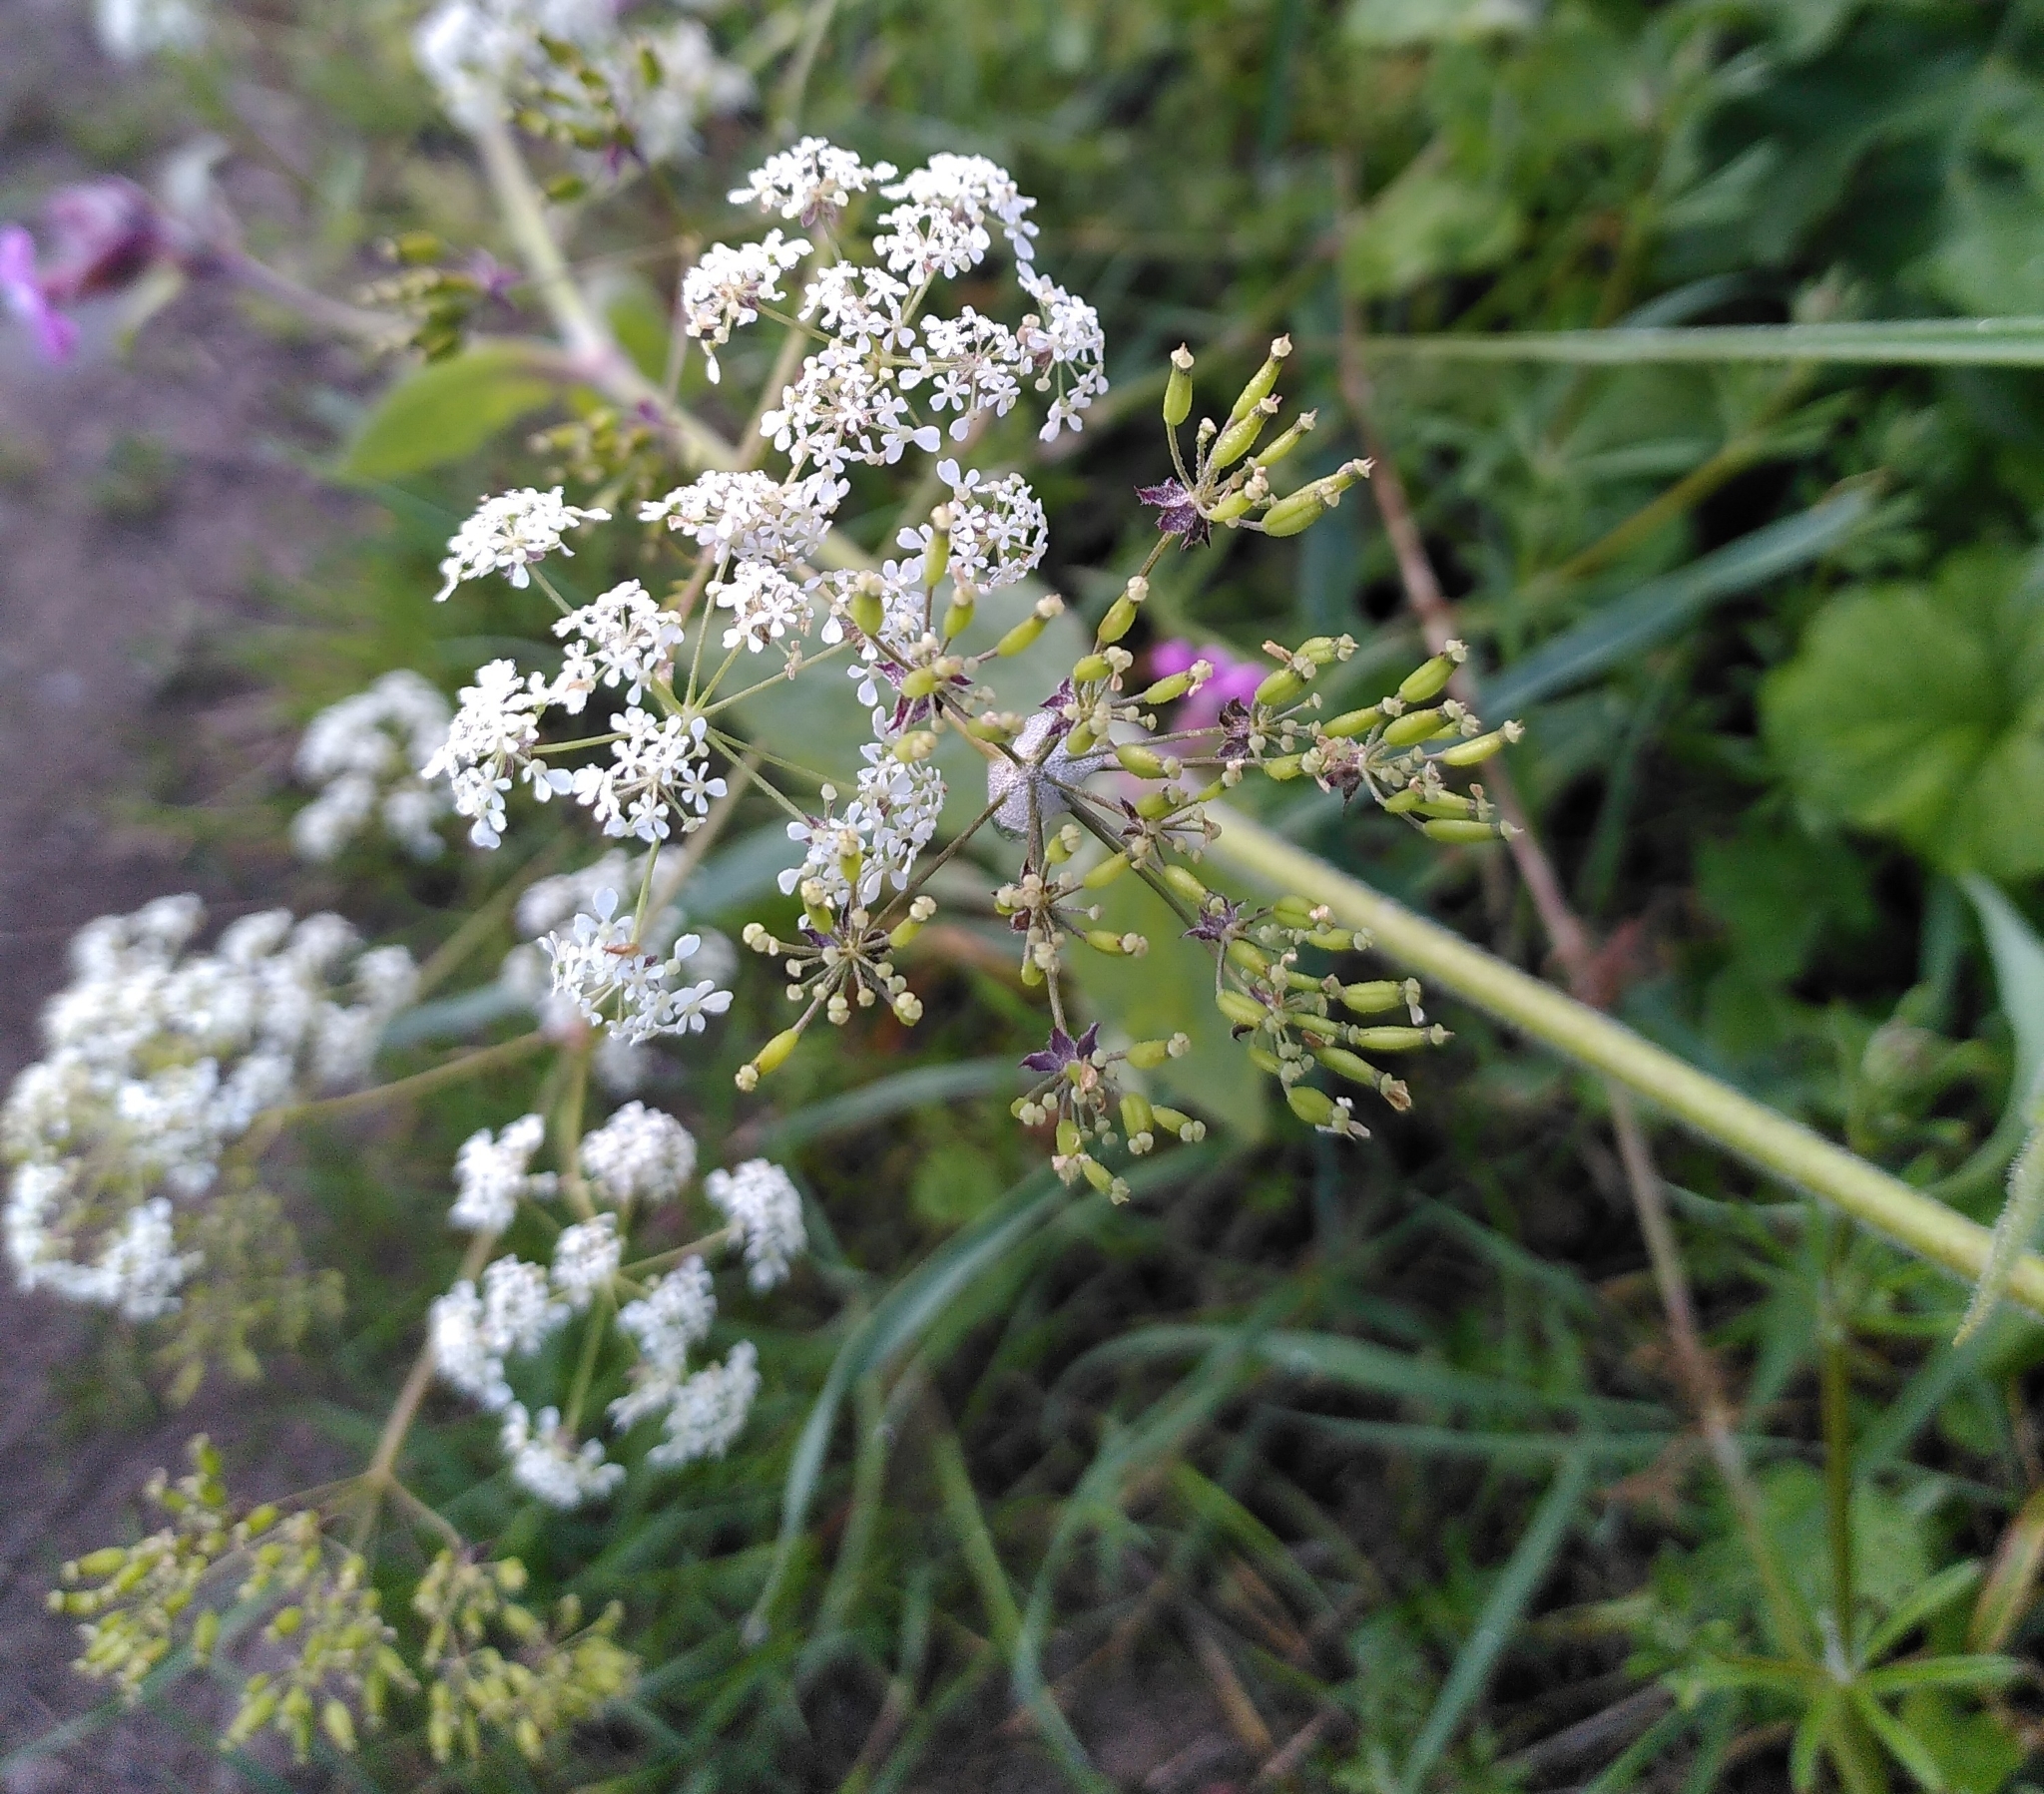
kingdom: Plantae
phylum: Tracheophyta
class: Magnoliopsida
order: Apiales
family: Apiaceae
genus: Anthriscus
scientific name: Anthriscus sylvestris
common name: Cow parsley
